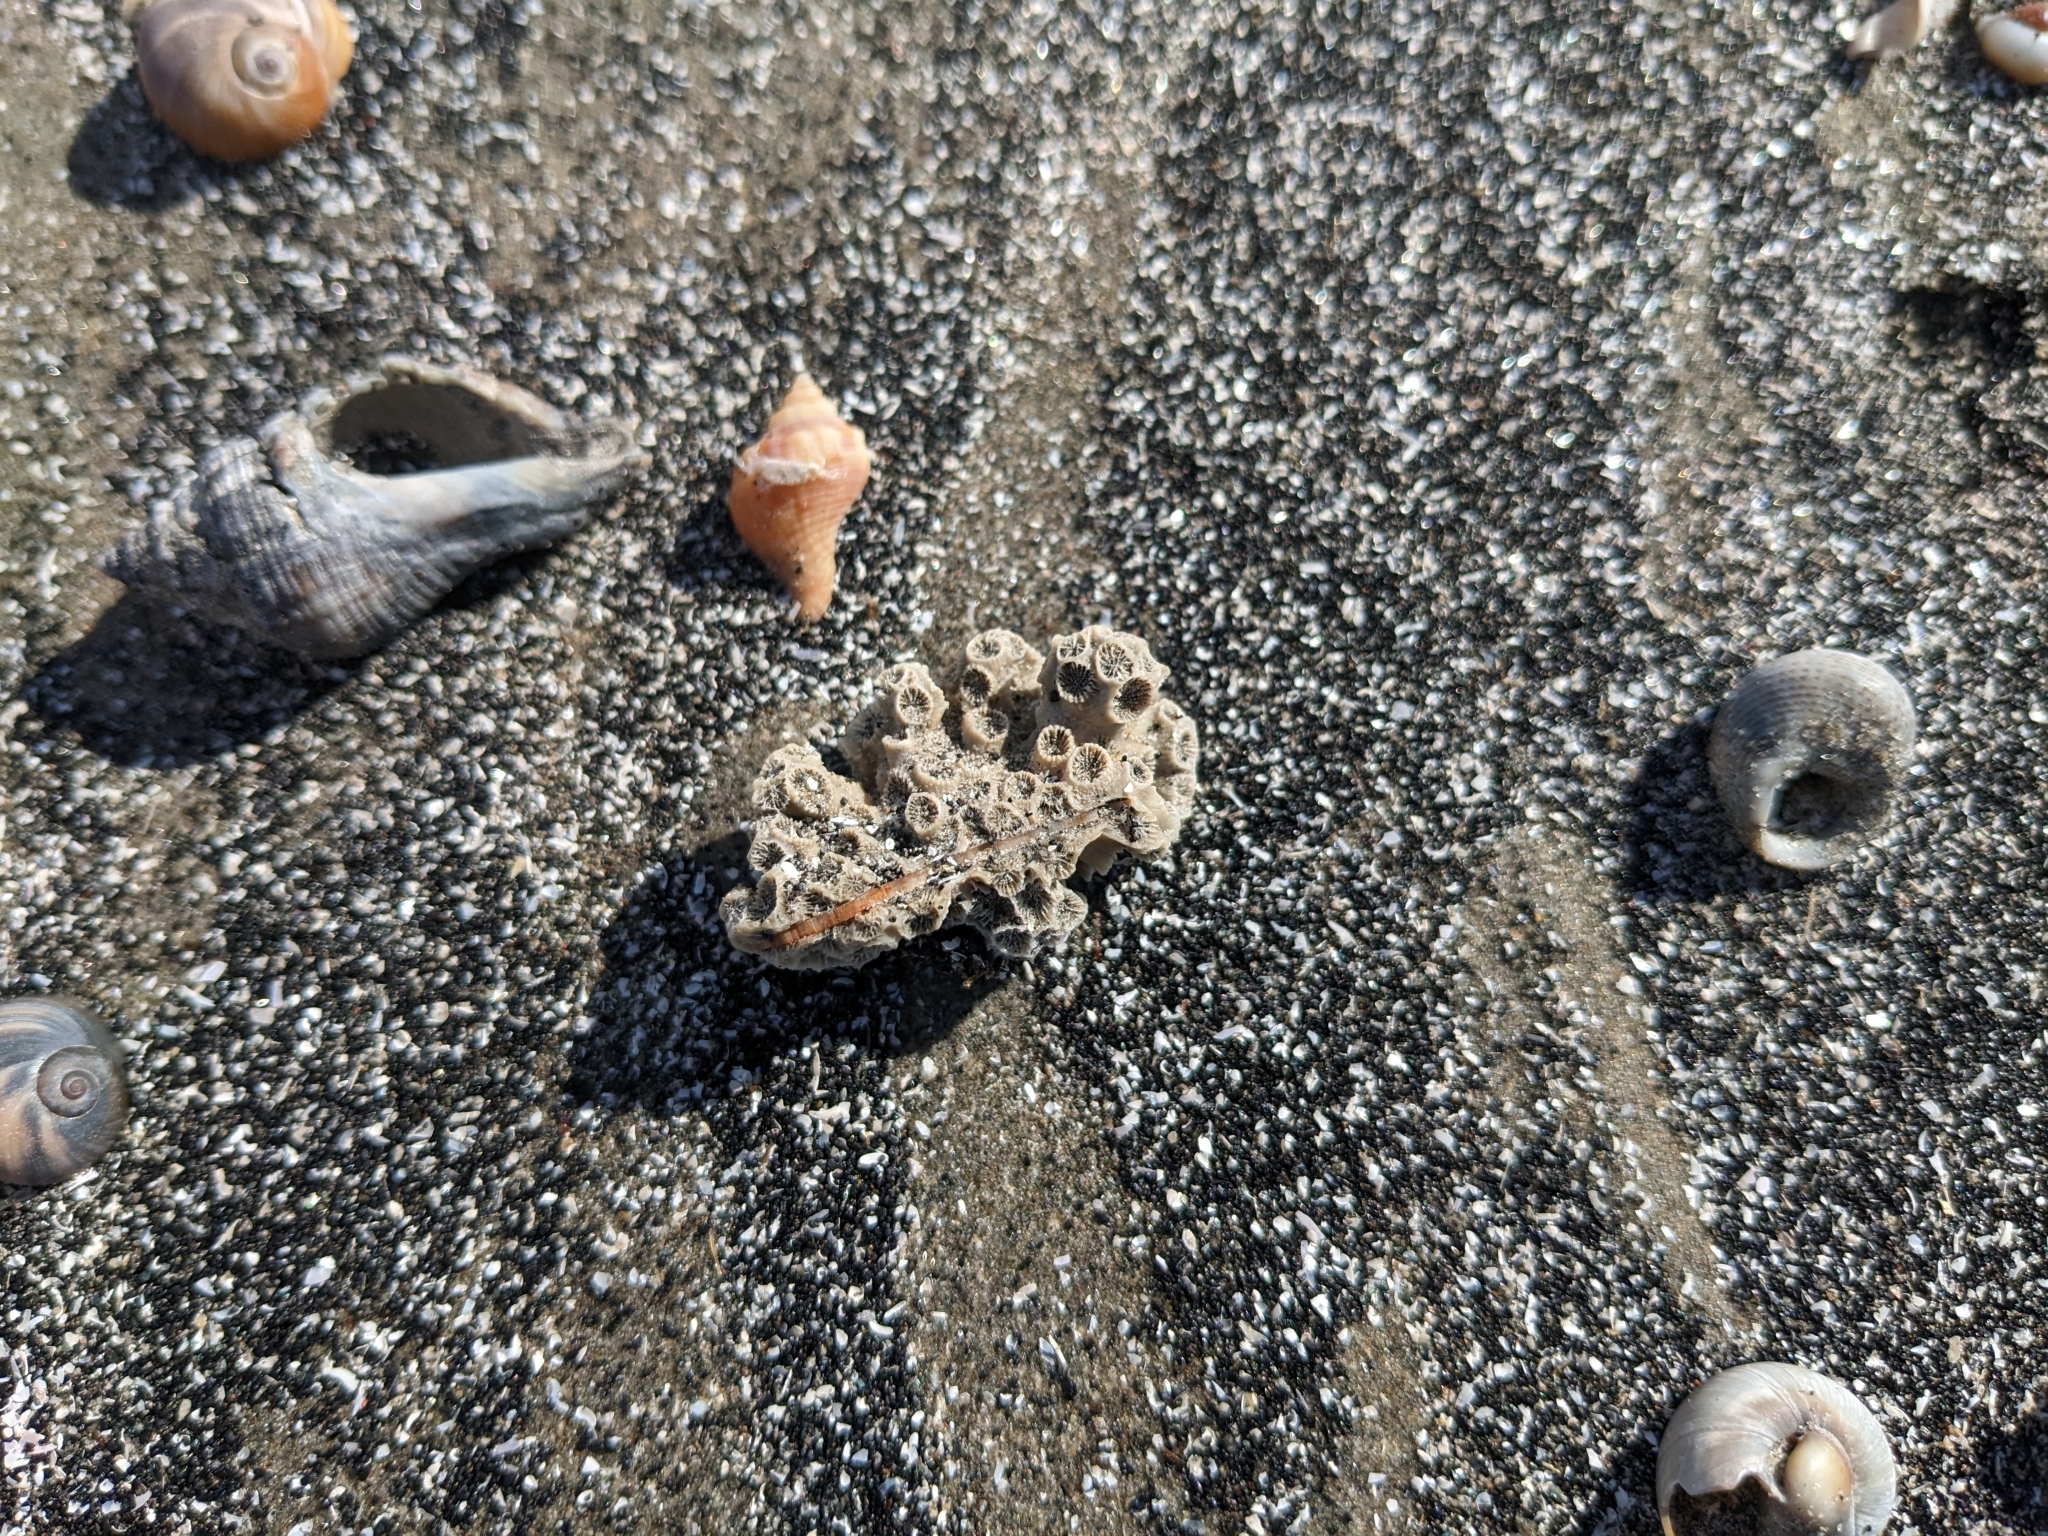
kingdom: Animalia
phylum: Cnidaria
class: Anthozoa
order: Scleractinia
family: Astrangiidae
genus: Astrangia
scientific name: Astrangia poculata
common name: Northern star coral
